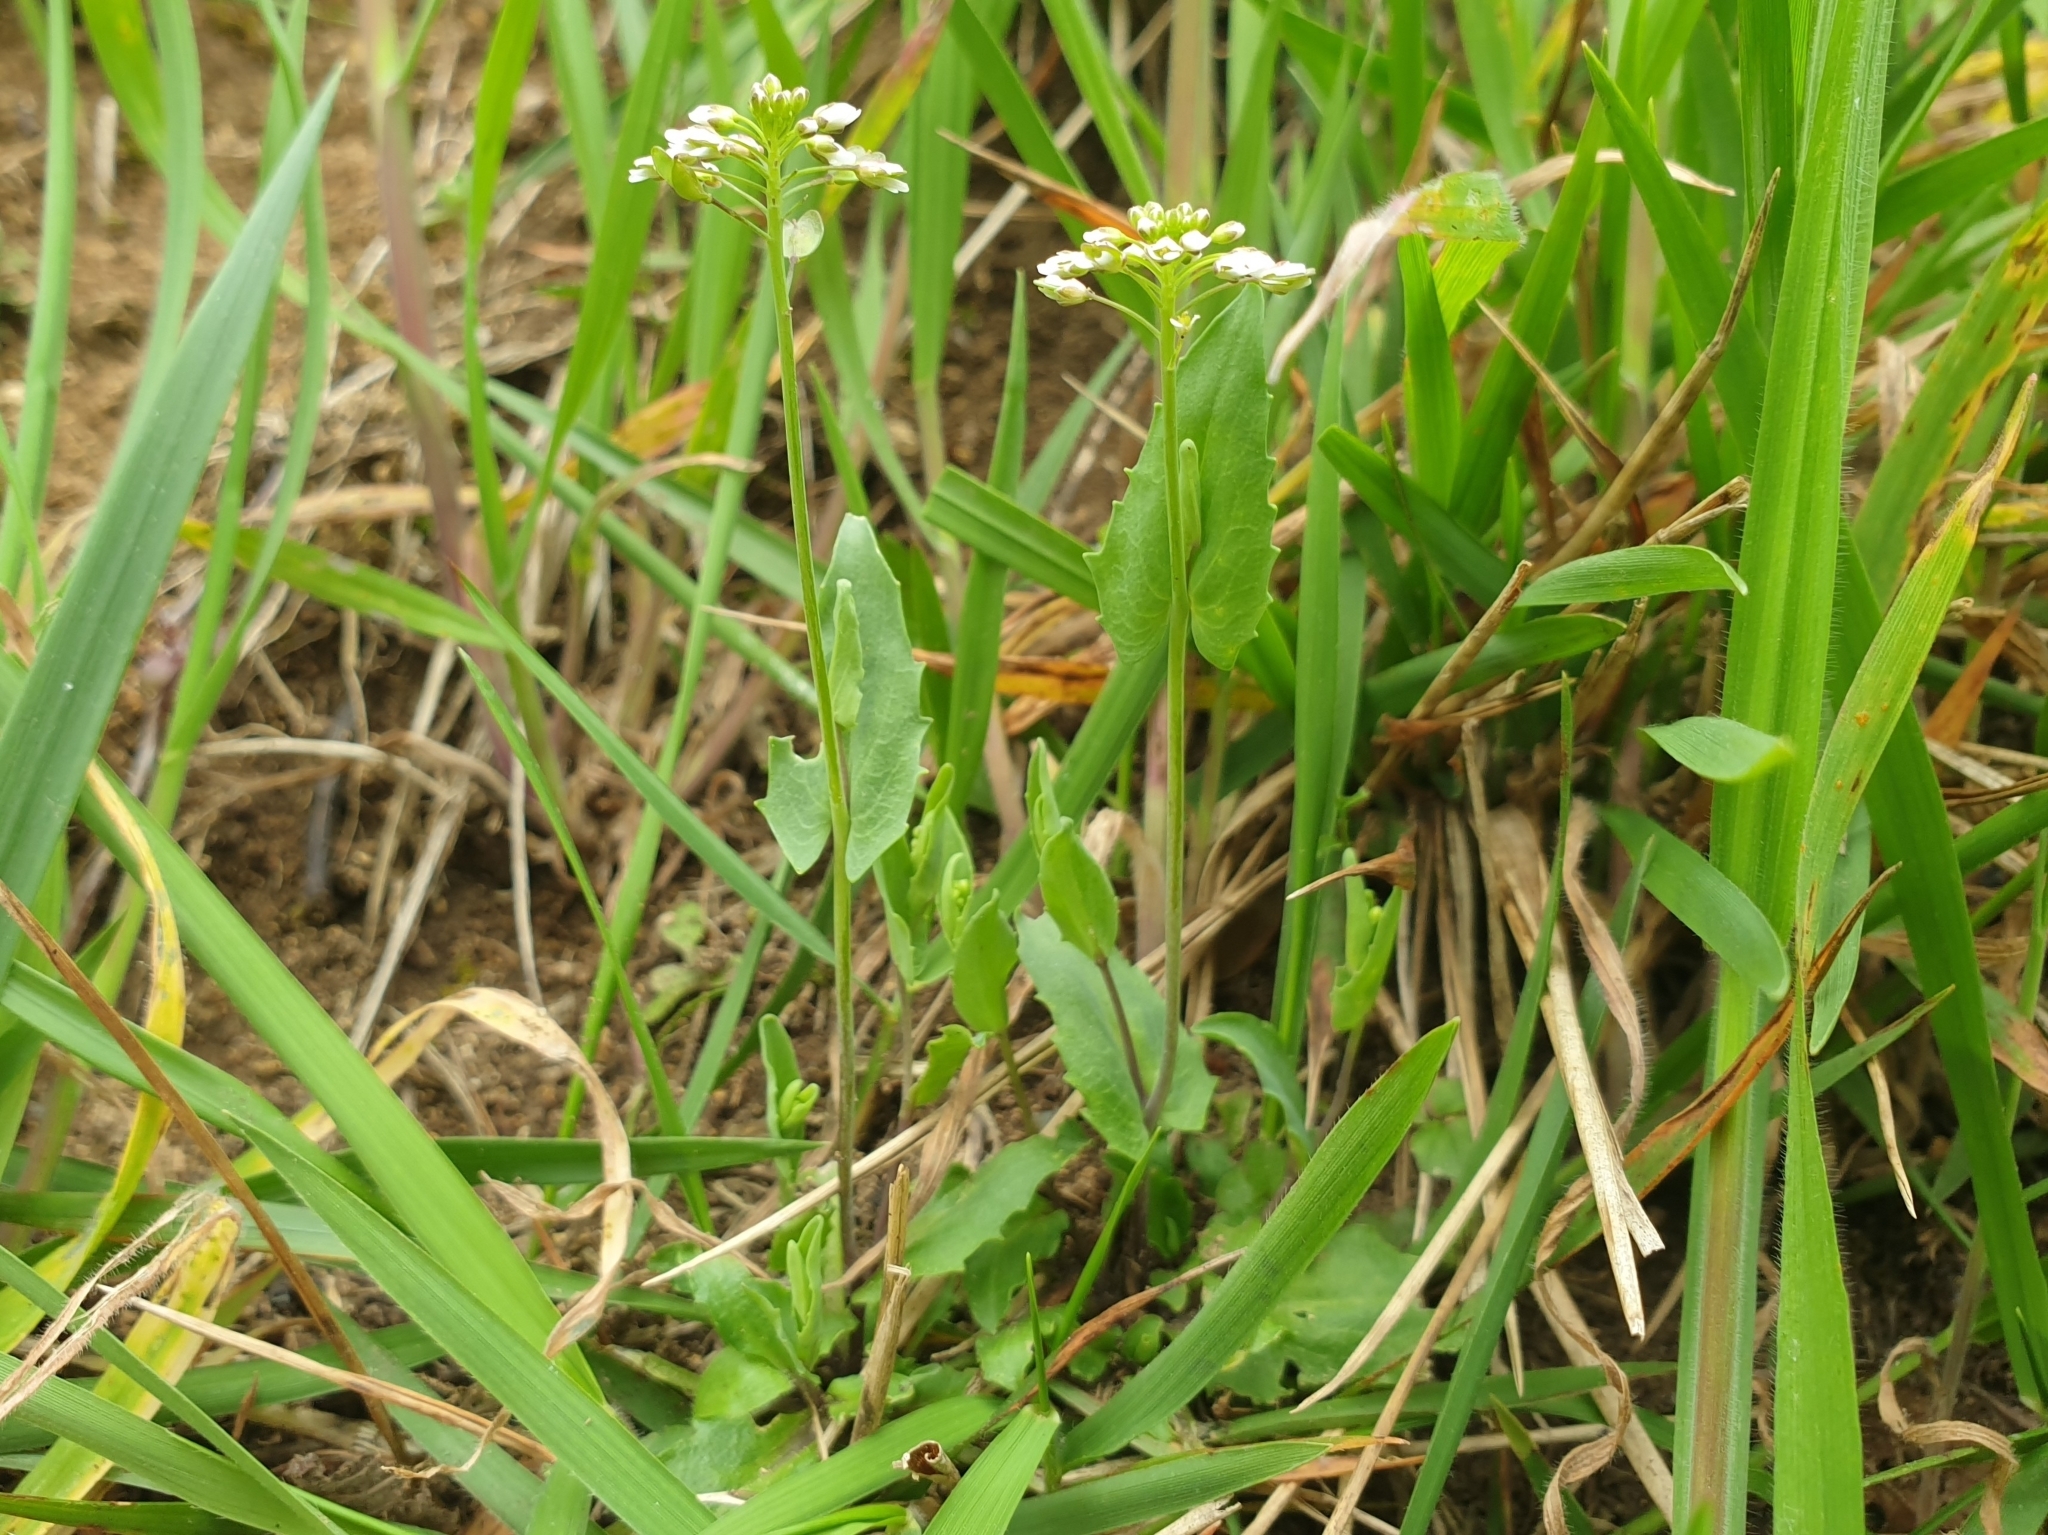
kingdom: Plantae
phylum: Tracheophyta
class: Magnoliopsida
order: Brassicales
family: Brassicaceae
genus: Noccaea
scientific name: Noccaea perfoliata
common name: Perfoliate pennycress
